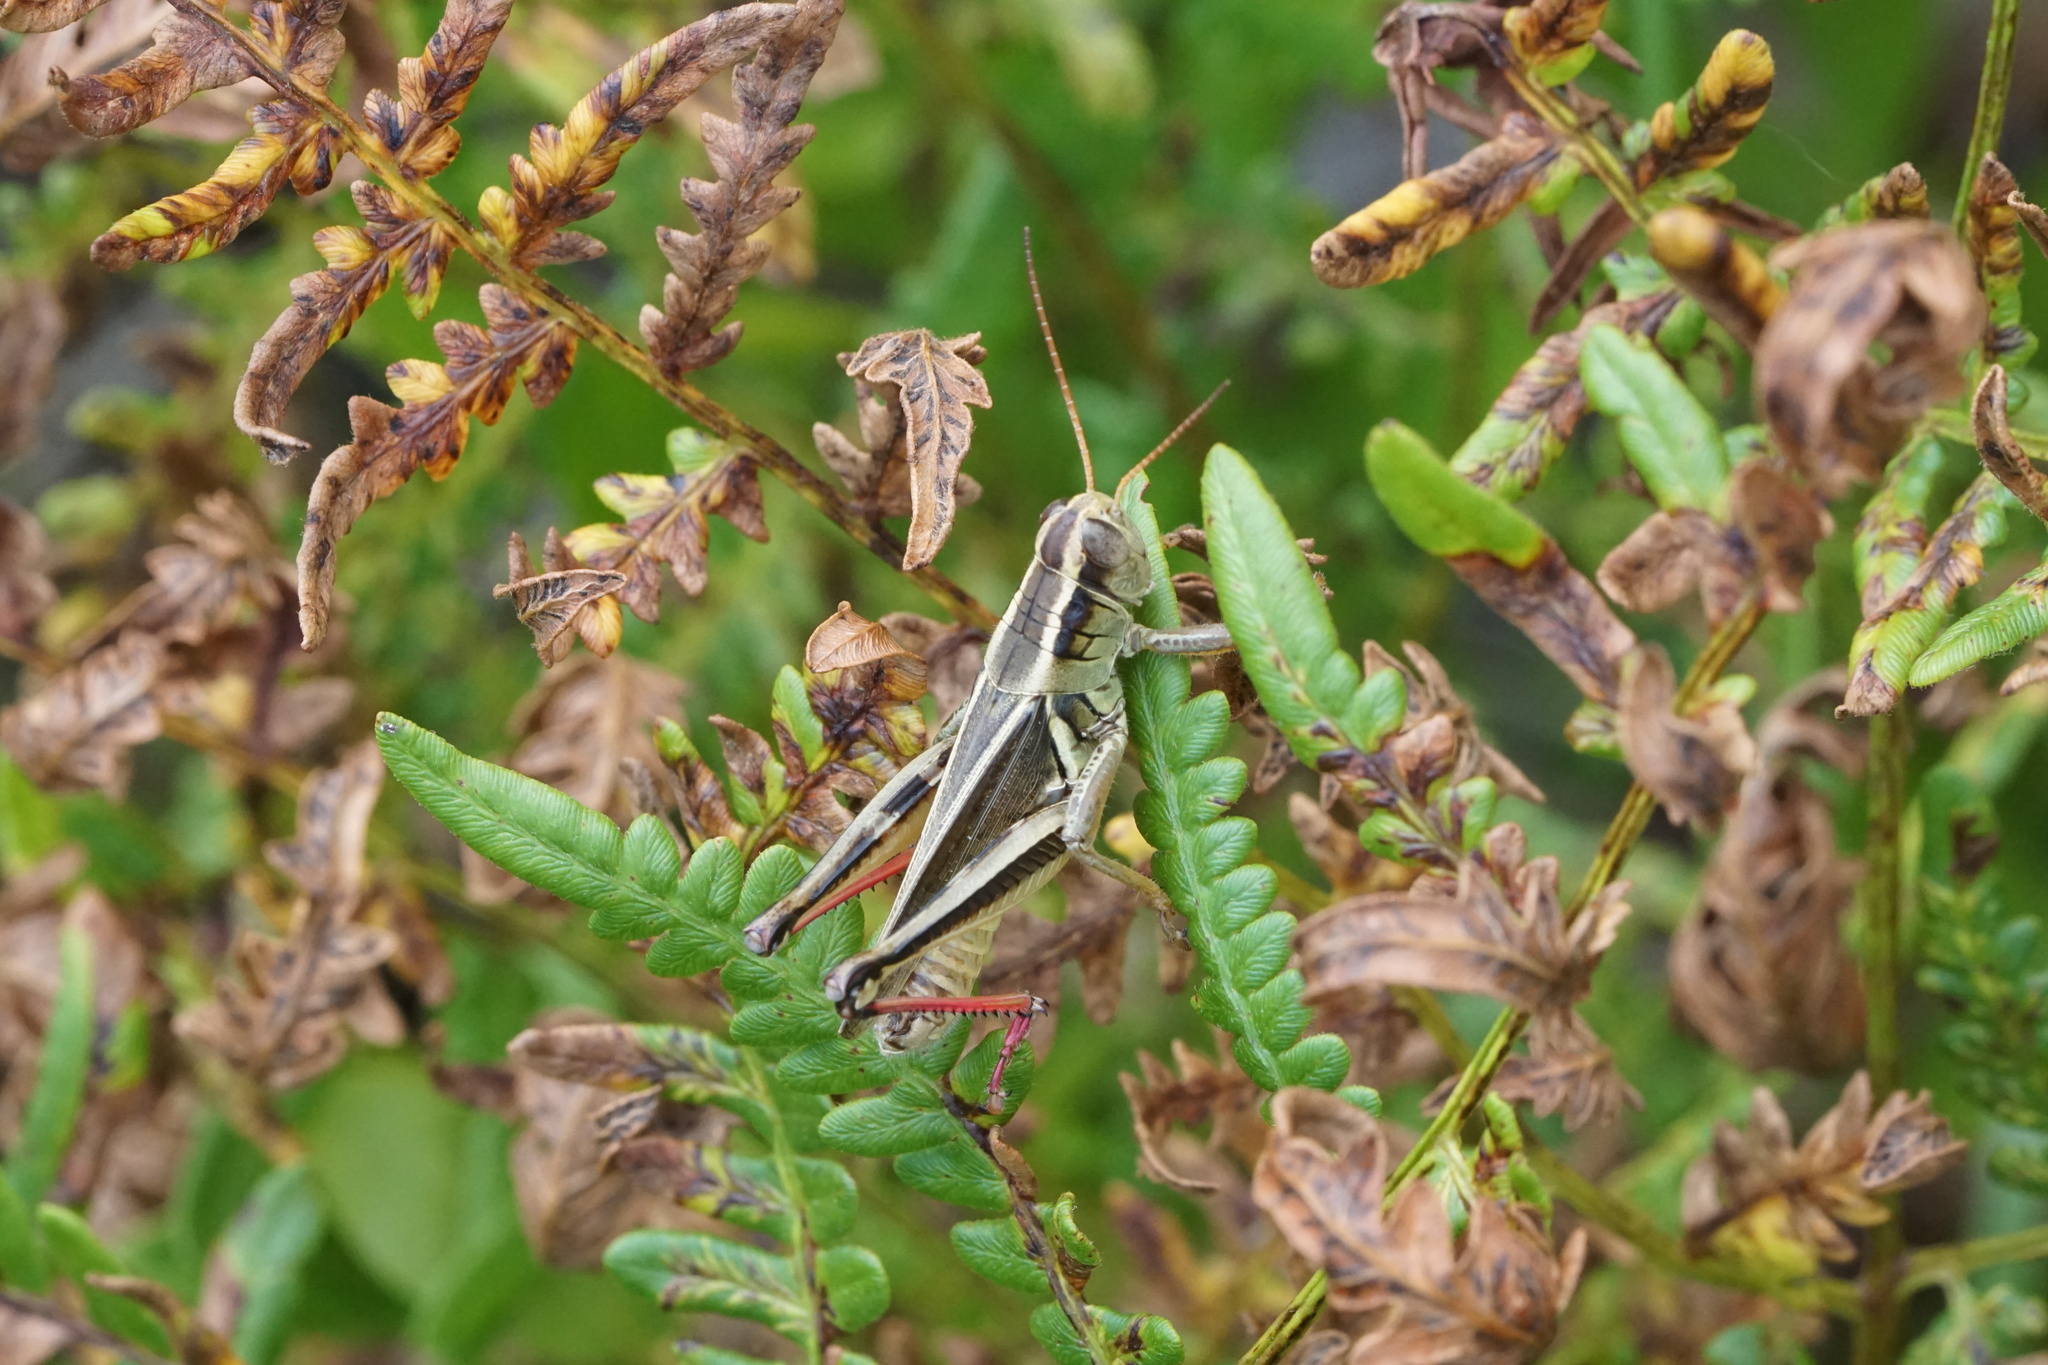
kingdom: Animalia
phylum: Arthropoda
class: Insecta
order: Orthoptera
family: Acrididae
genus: Melanoplus
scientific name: Melanoplus bivittatus
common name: Two-striped grasshopper
